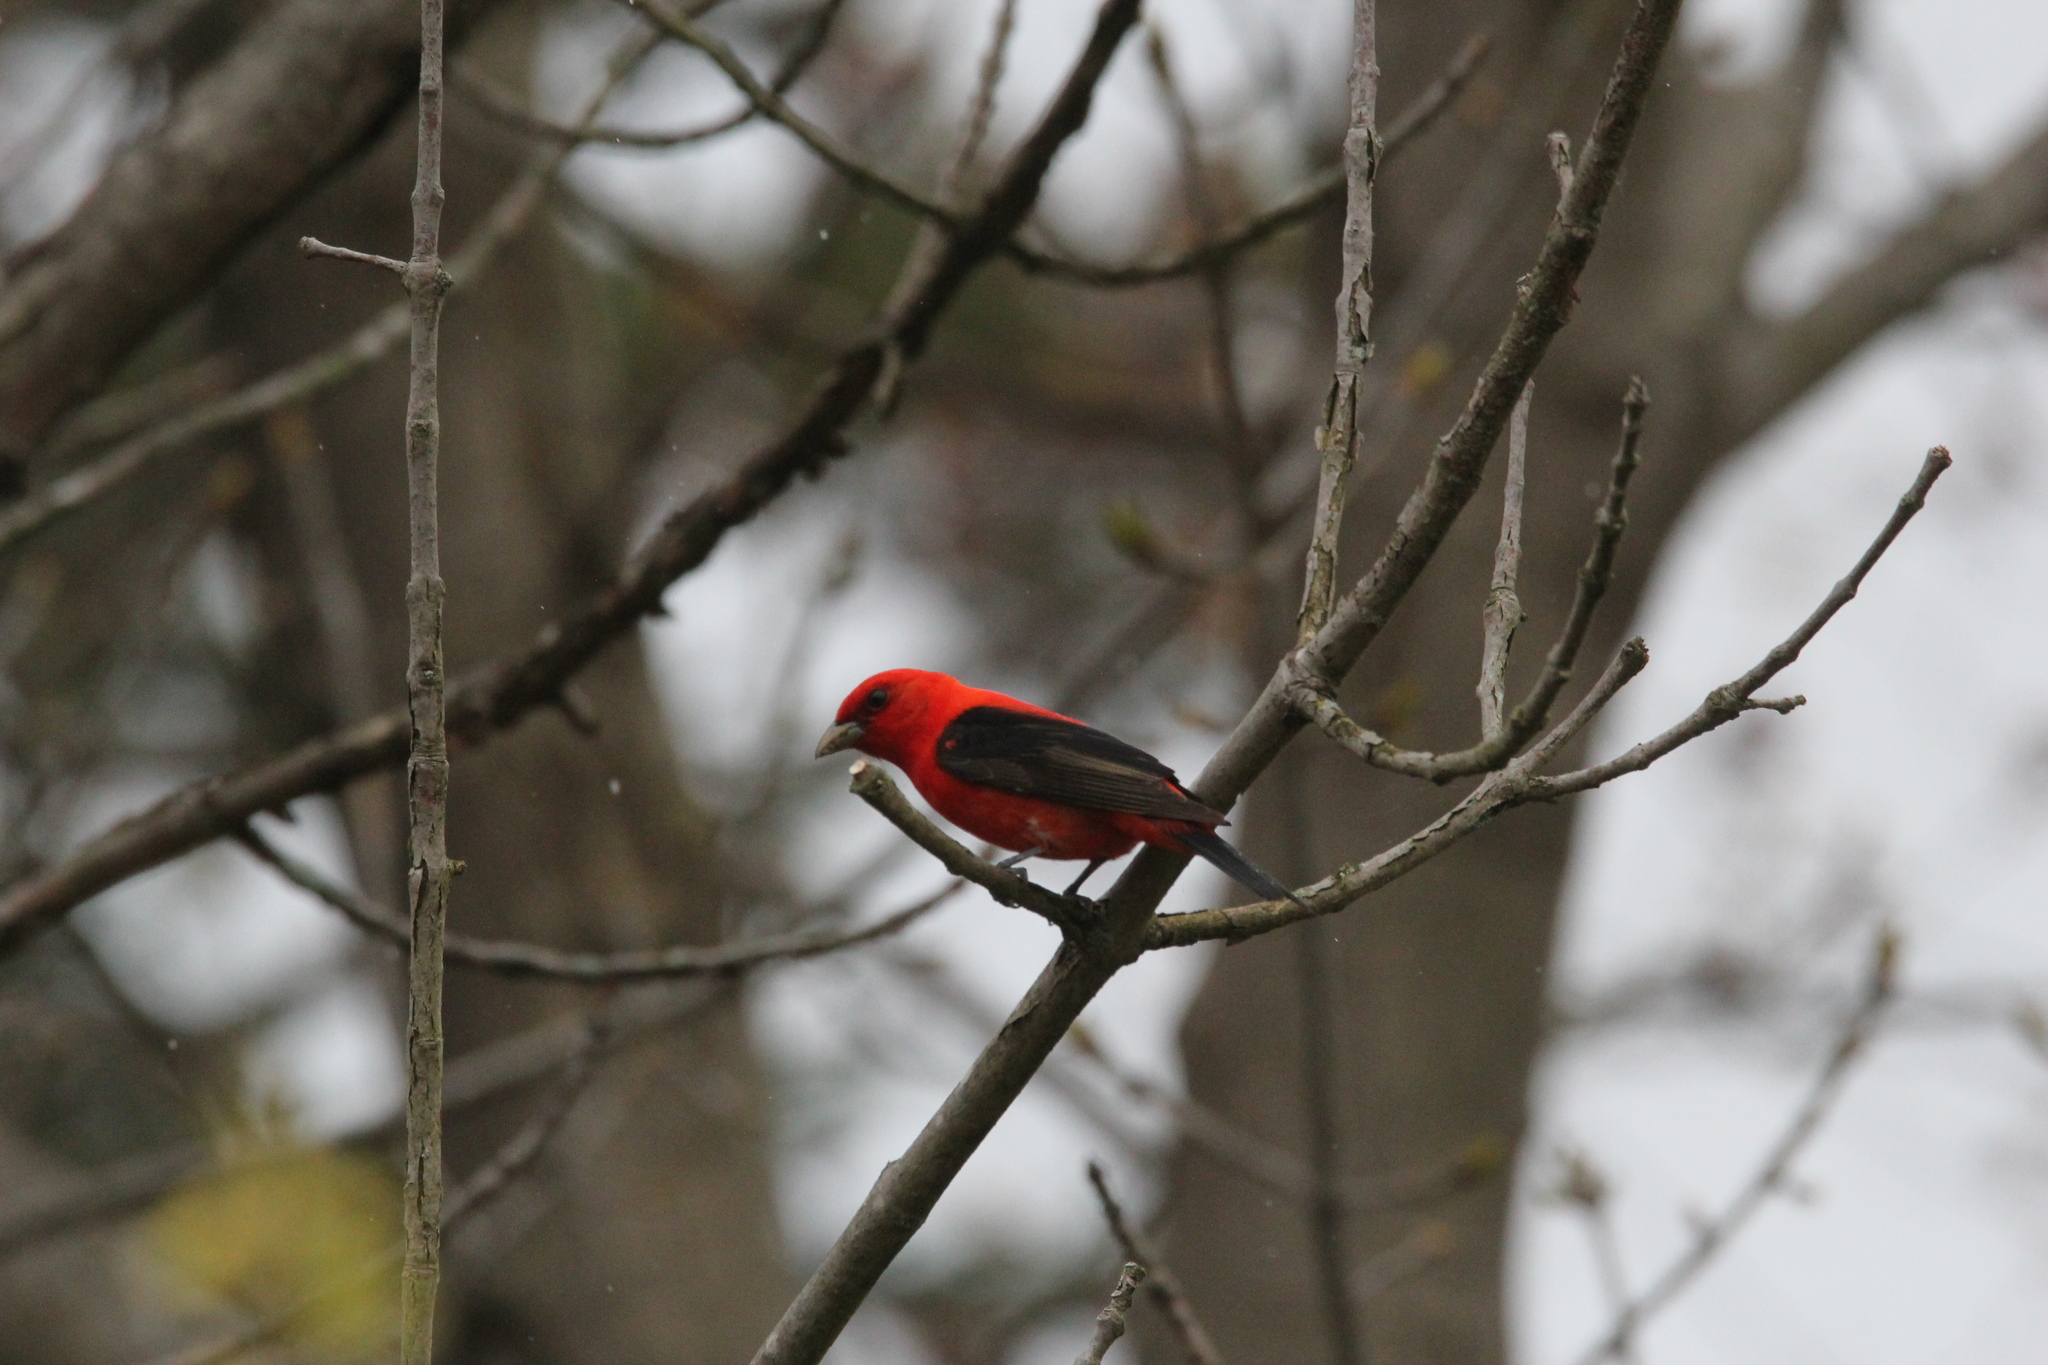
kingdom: Animalia
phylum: Chordata
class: Aves
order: Passeriformes
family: Cardinalidae
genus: Piranga
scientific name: Piranga olivacea
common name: Scarlet tanager
